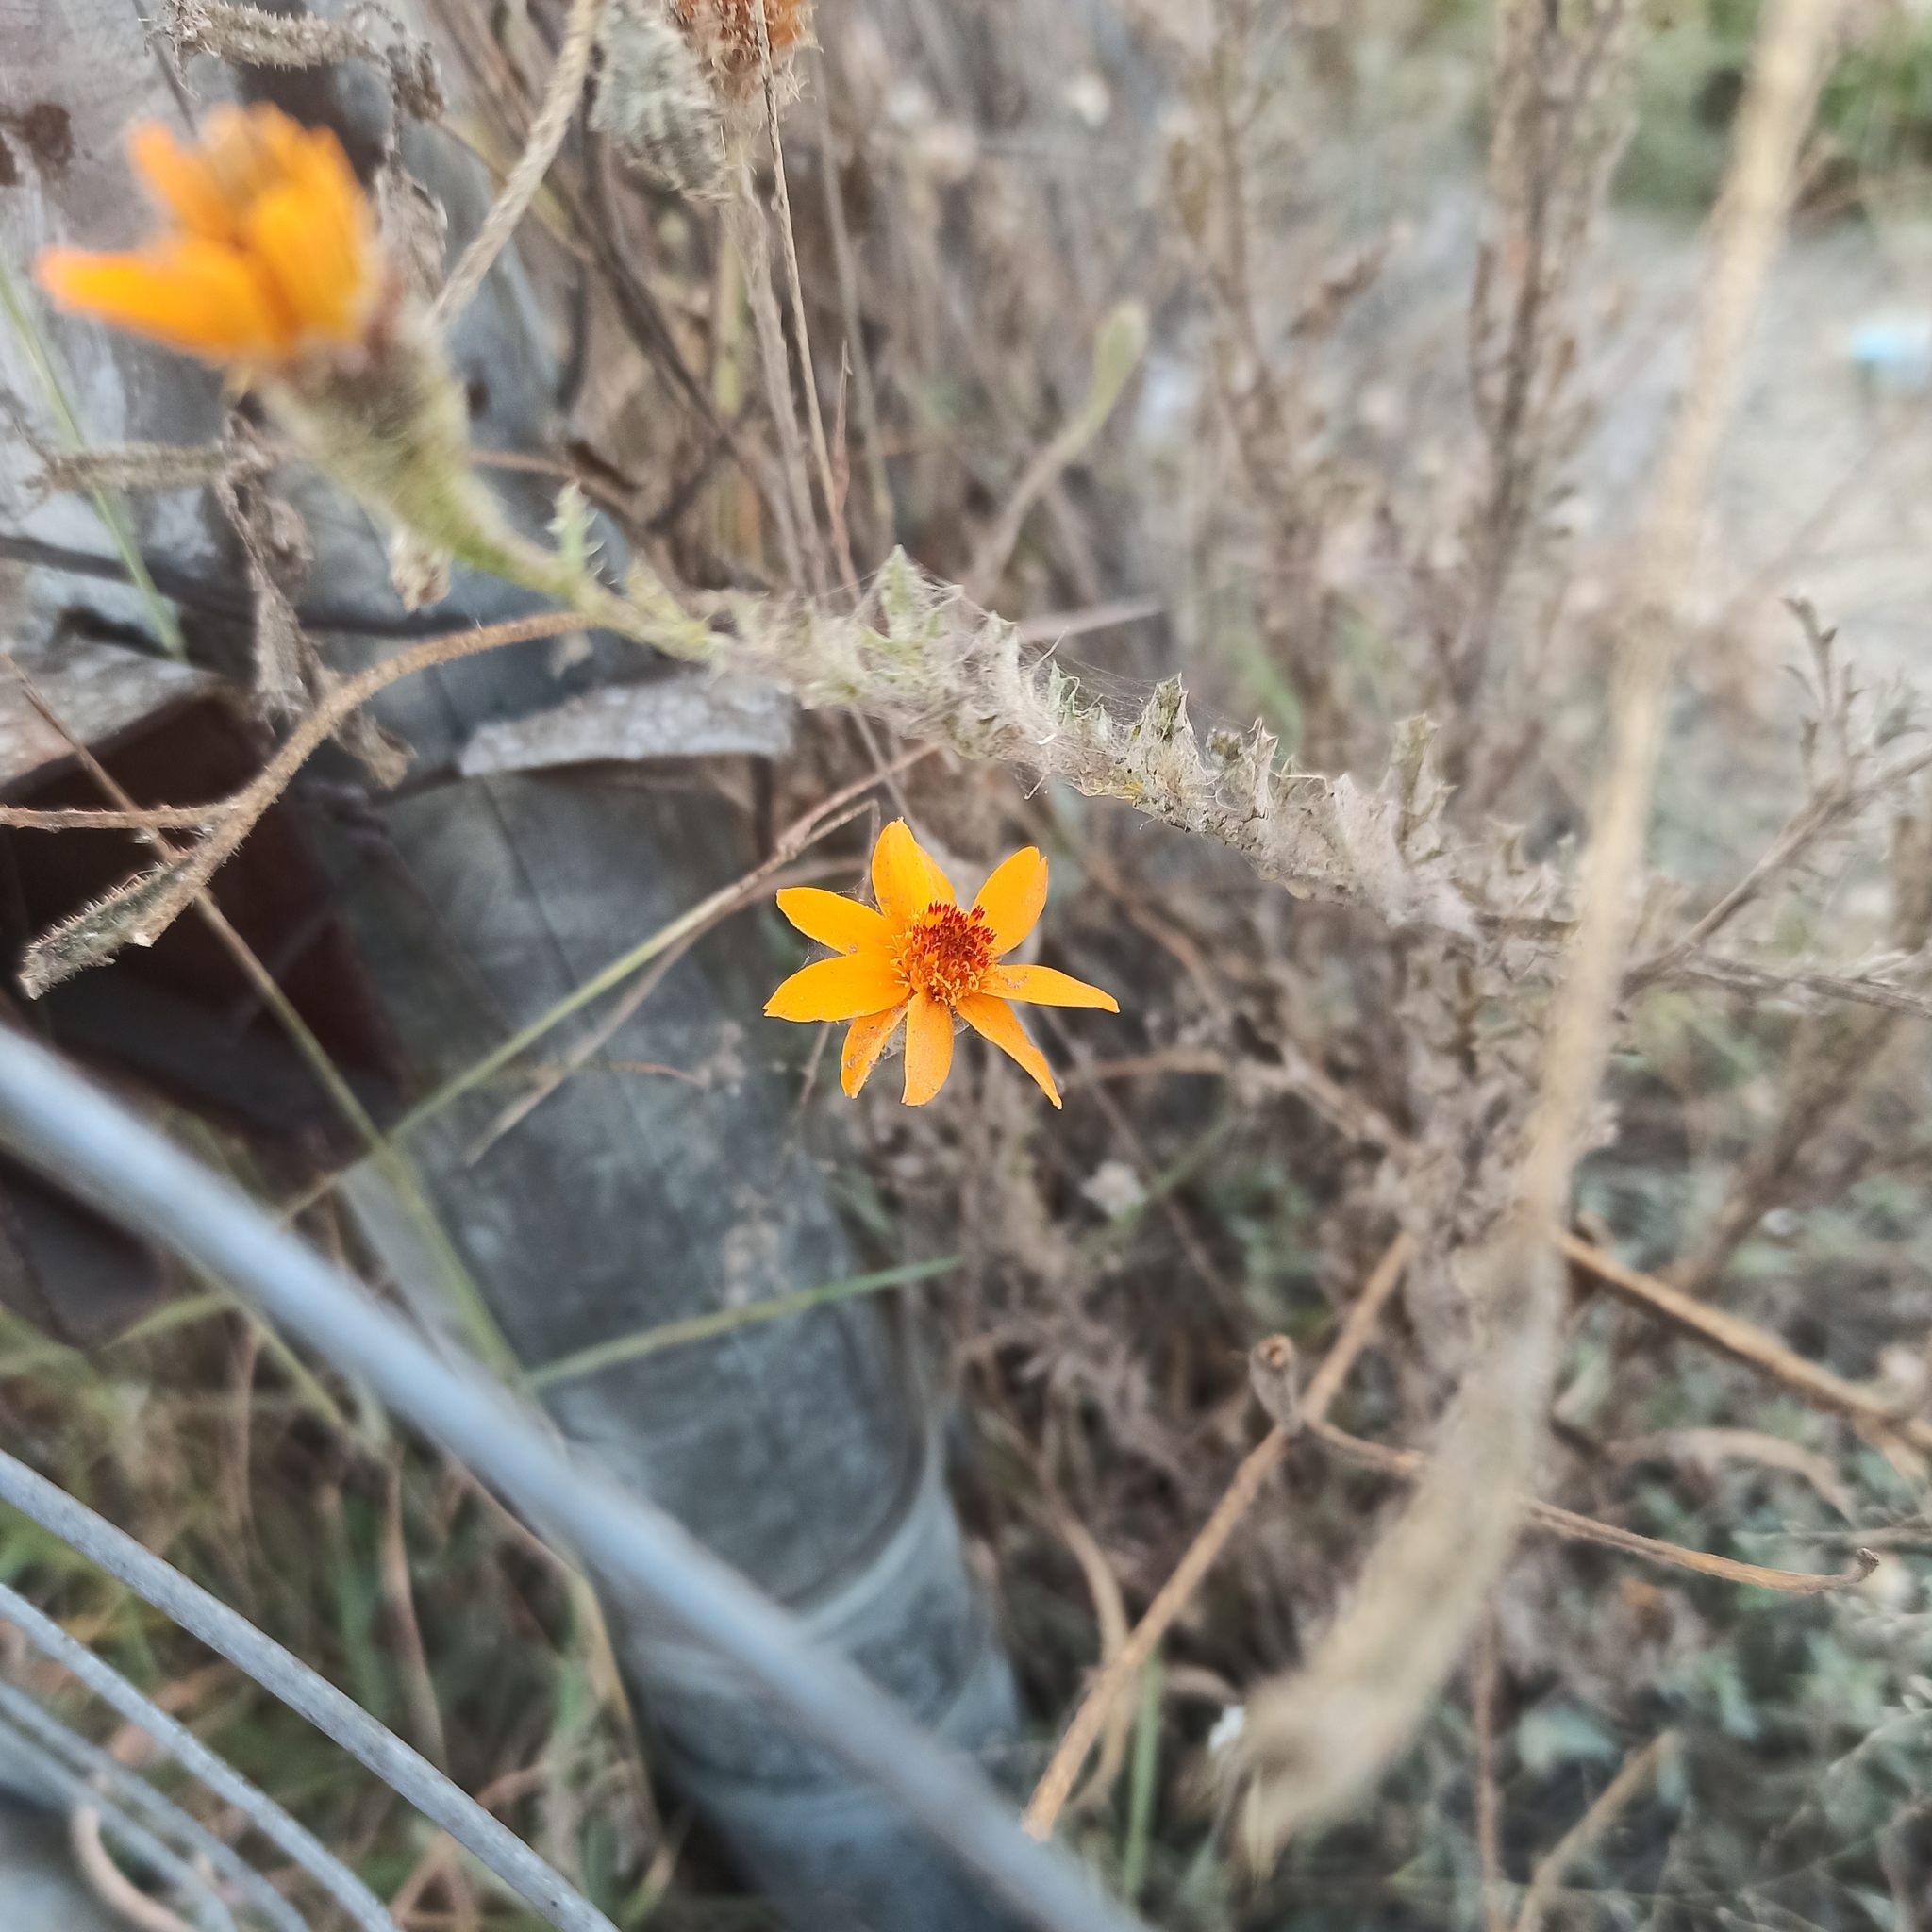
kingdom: Plantae
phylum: Tracheophyta
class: Magnoliopsida
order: Asterales
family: Asteraceae
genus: Adenophyllum
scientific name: Adenophyllum cancellatum
